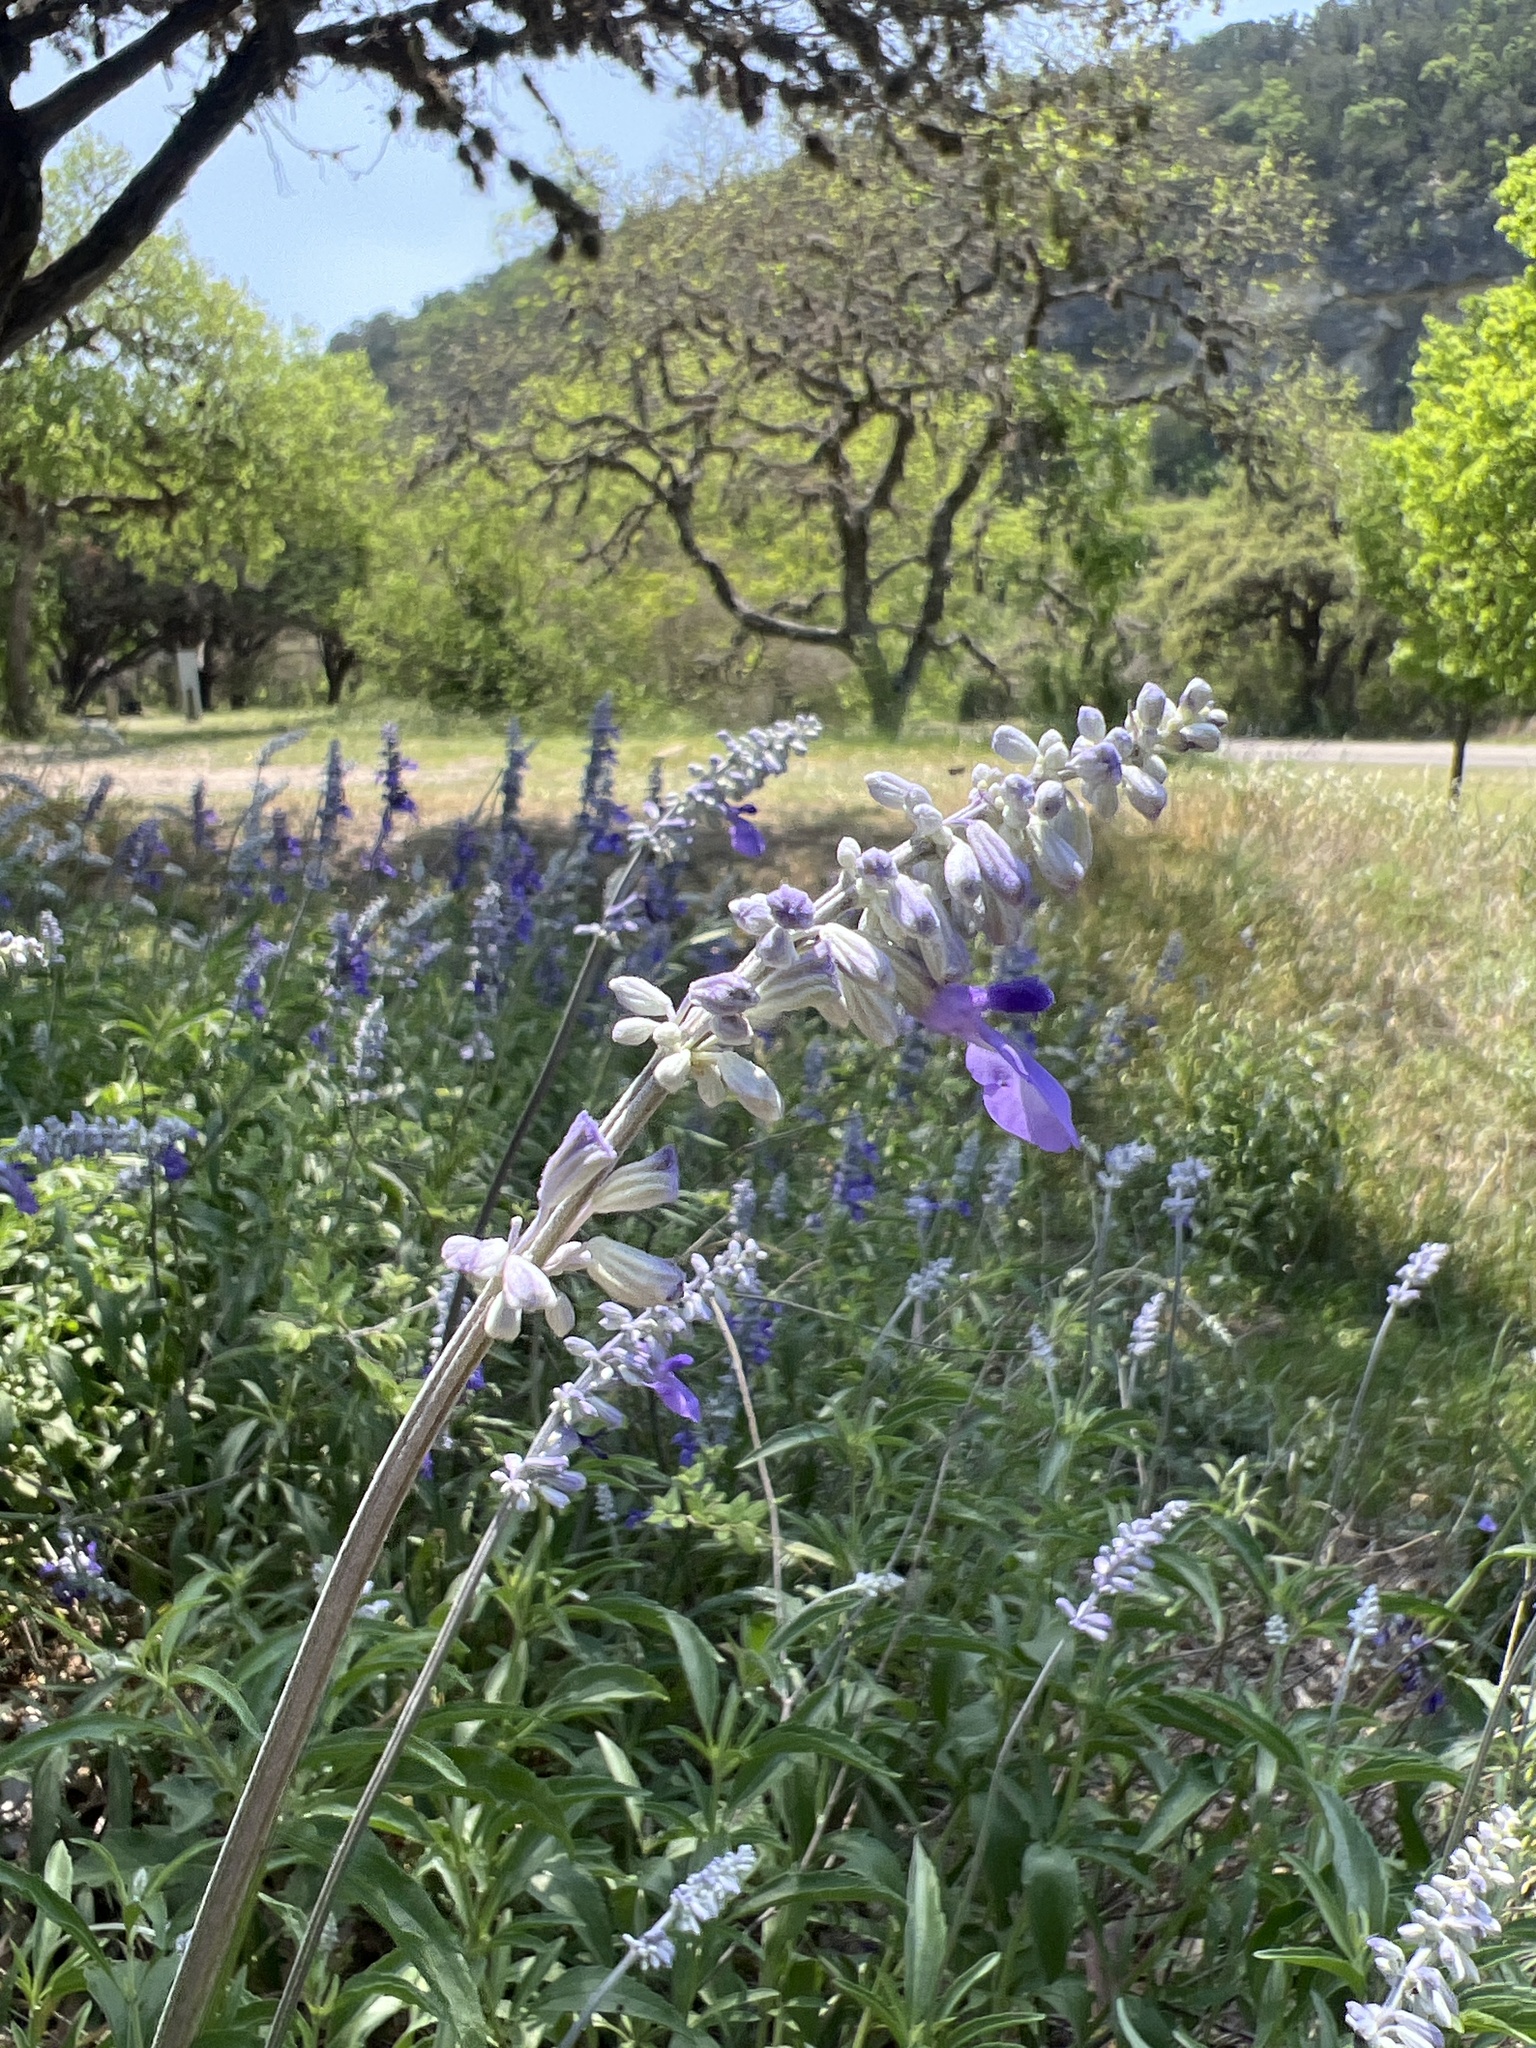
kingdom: Plantae
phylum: Tracheophyta
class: Magnoliopsida
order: Lamiales
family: Lamiaceae
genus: Salvia
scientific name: Salvia farinacea
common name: Mealy sage
